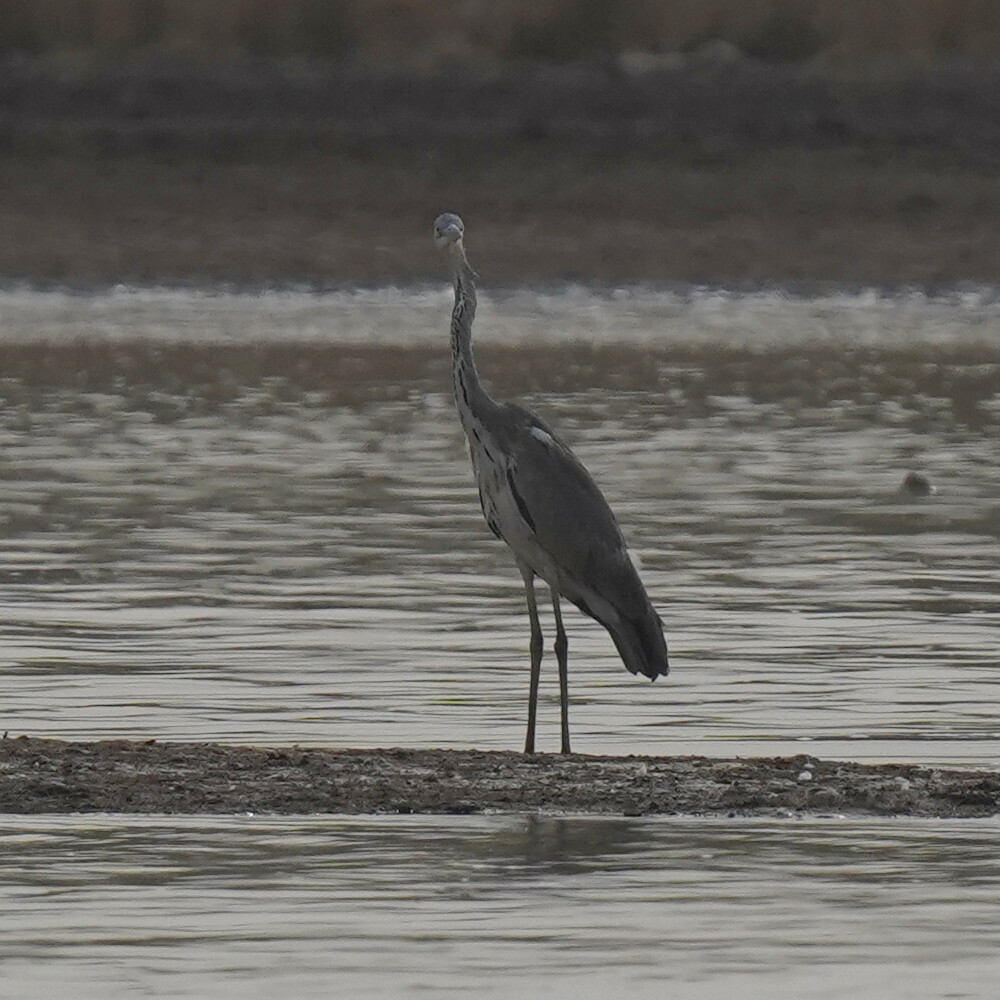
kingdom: Animalia
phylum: Chordata
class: Aves
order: Pelecaniformes
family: Ardeidae
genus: Ardea
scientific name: Ardea cinerea
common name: Grey heron
